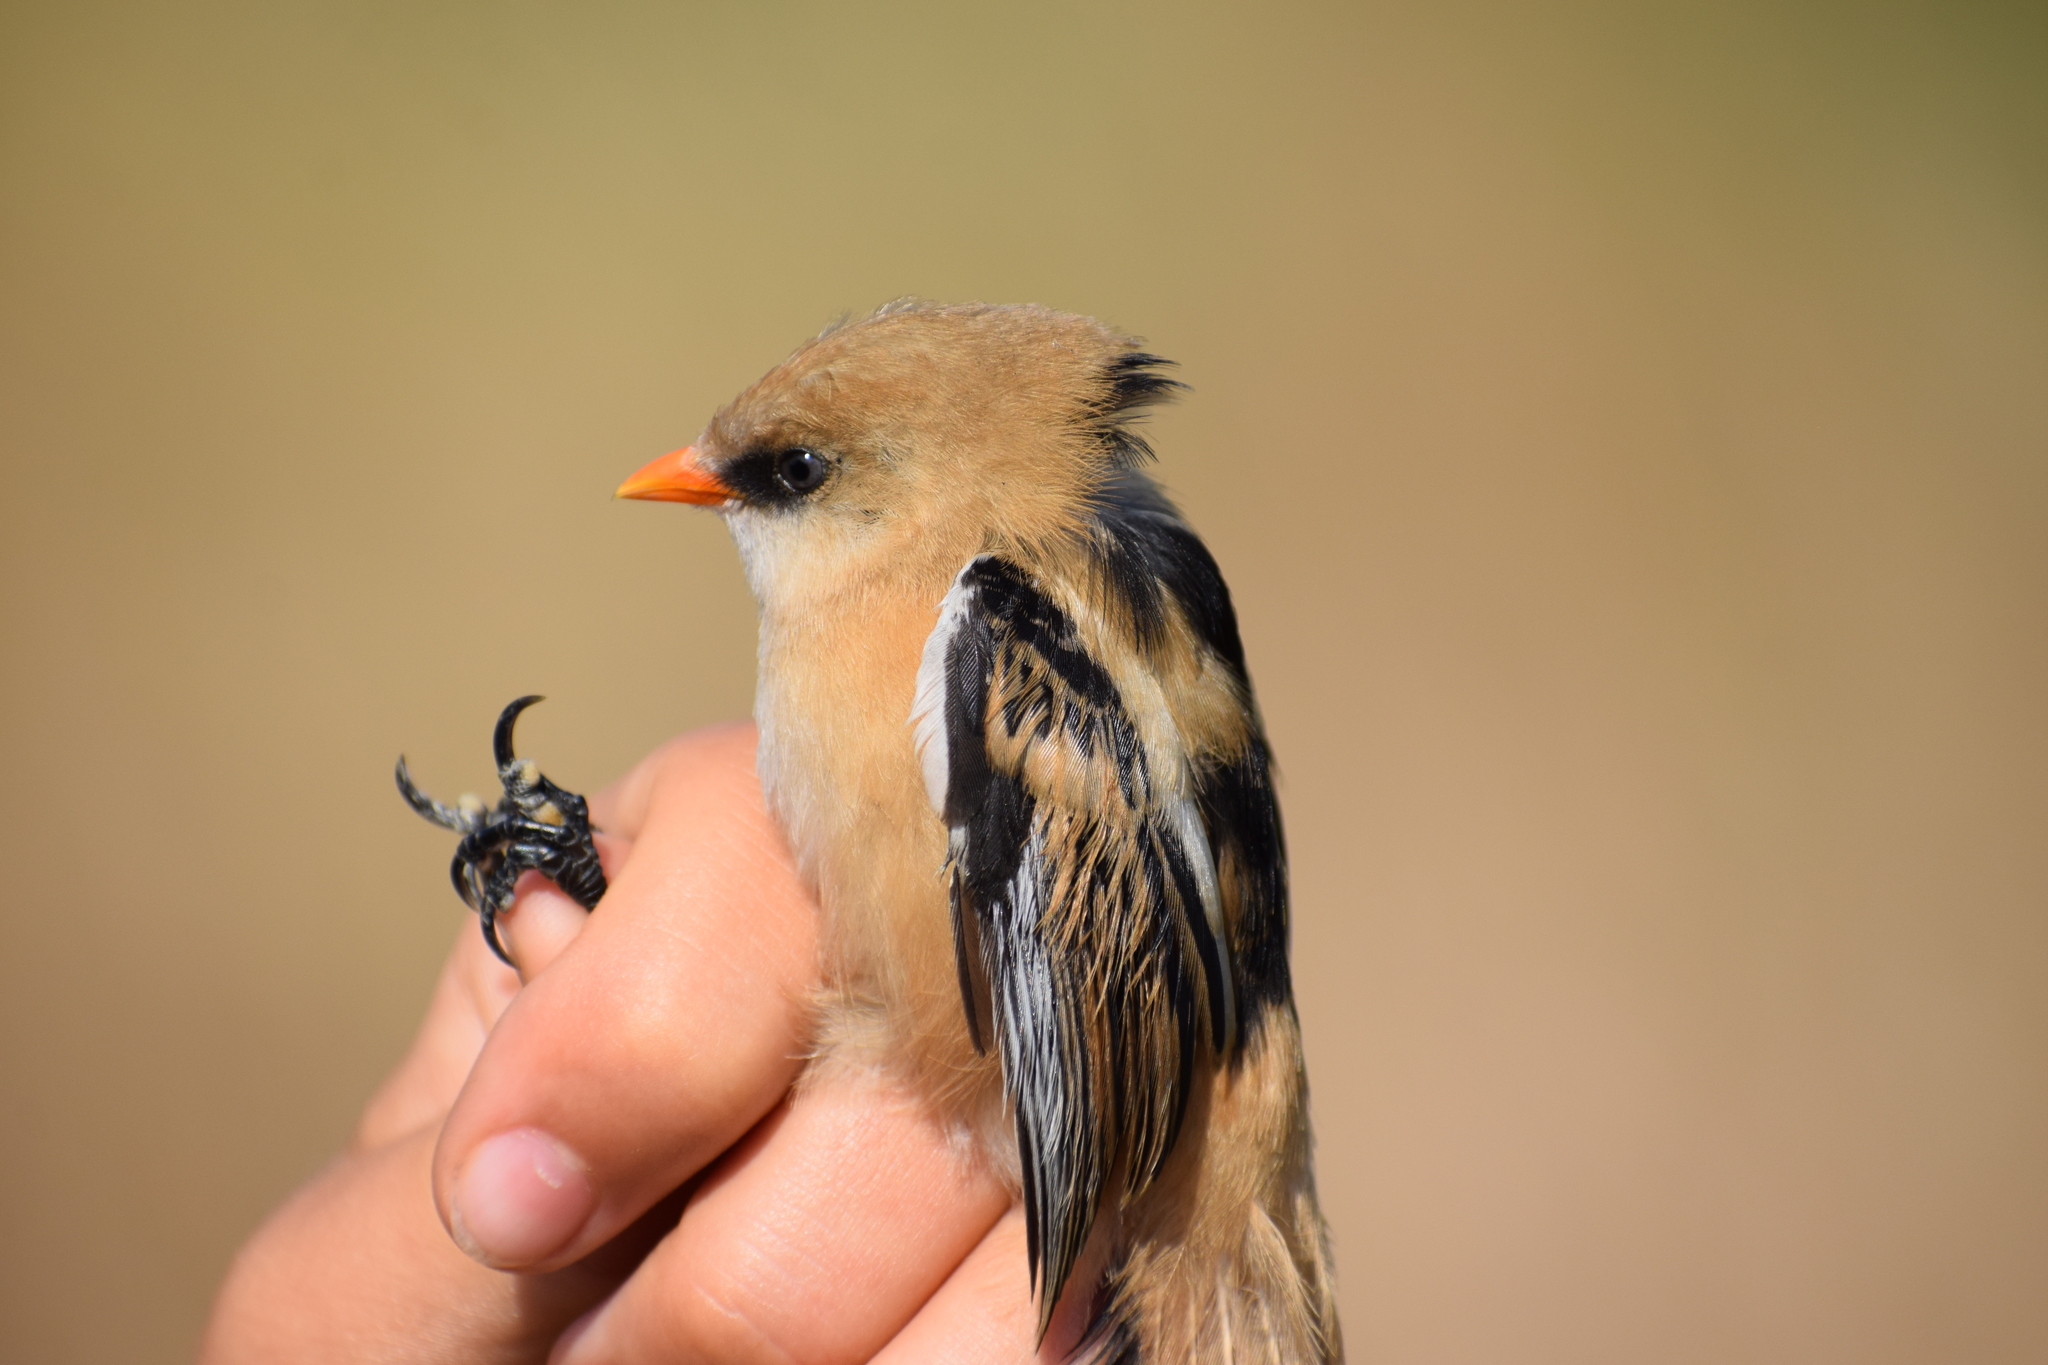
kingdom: Animalia
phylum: Chordata
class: Aves
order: Passeriformes
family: Panuridae
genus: Panurus
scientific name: Panurus biarmicus
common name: Bearded reedling
